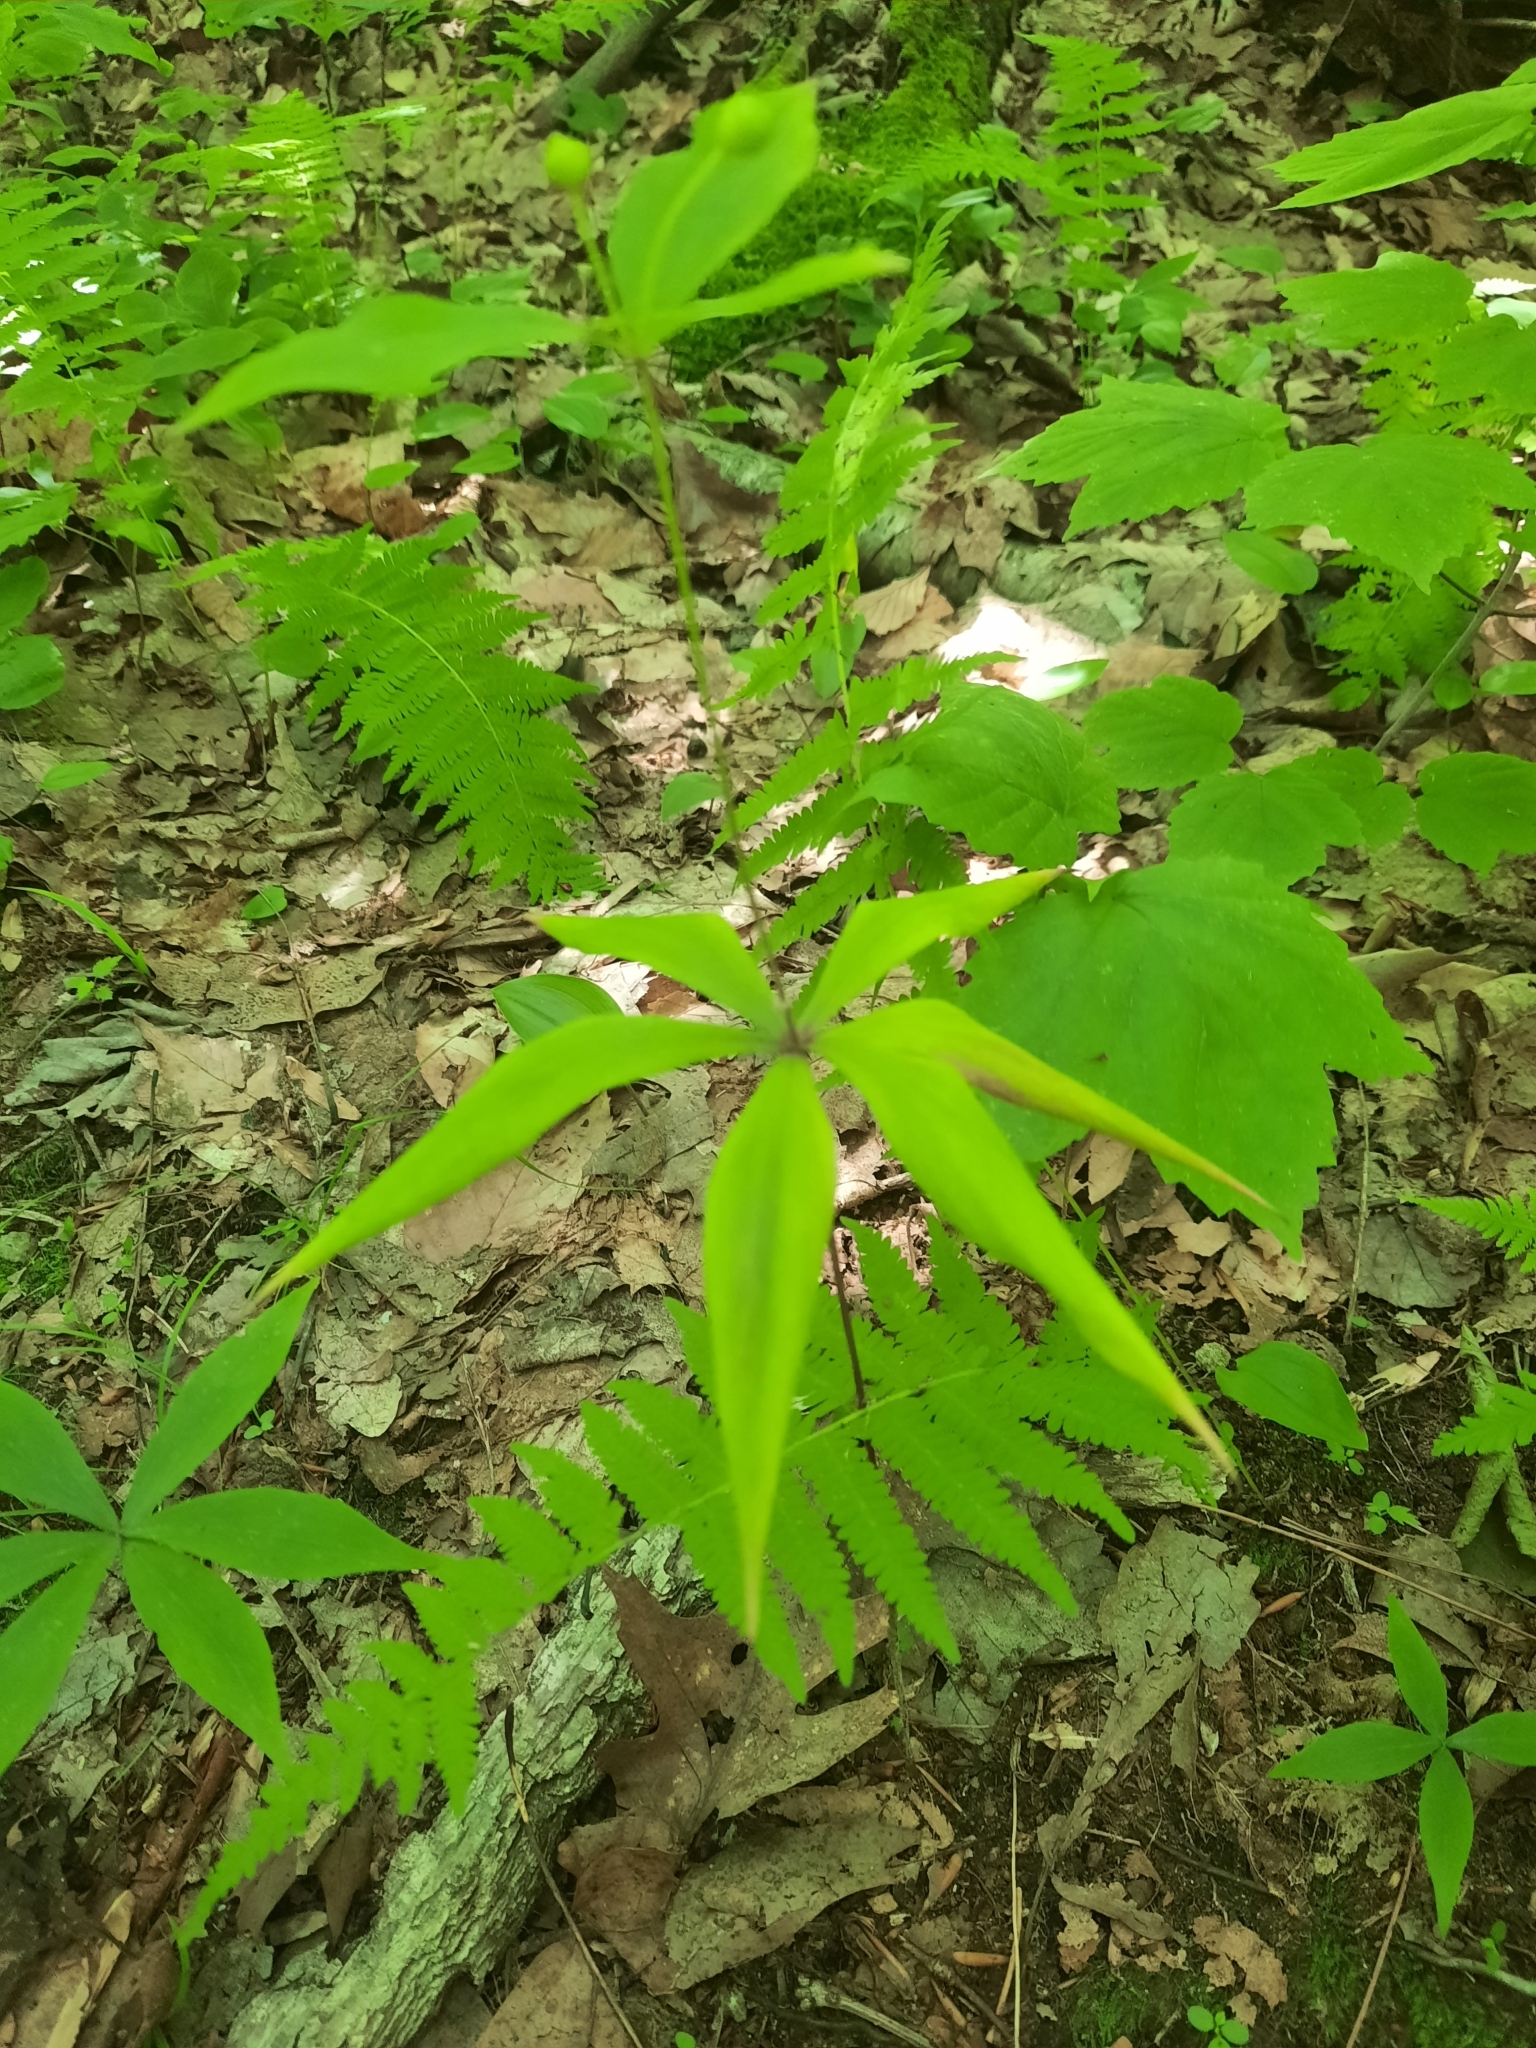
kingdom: Plantae
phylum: Tracheophyta
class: Liliopsida
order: Liliales
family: Liliaceae
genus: Medeola
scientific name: Medeola virginiana
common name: Indian cucumber-root
